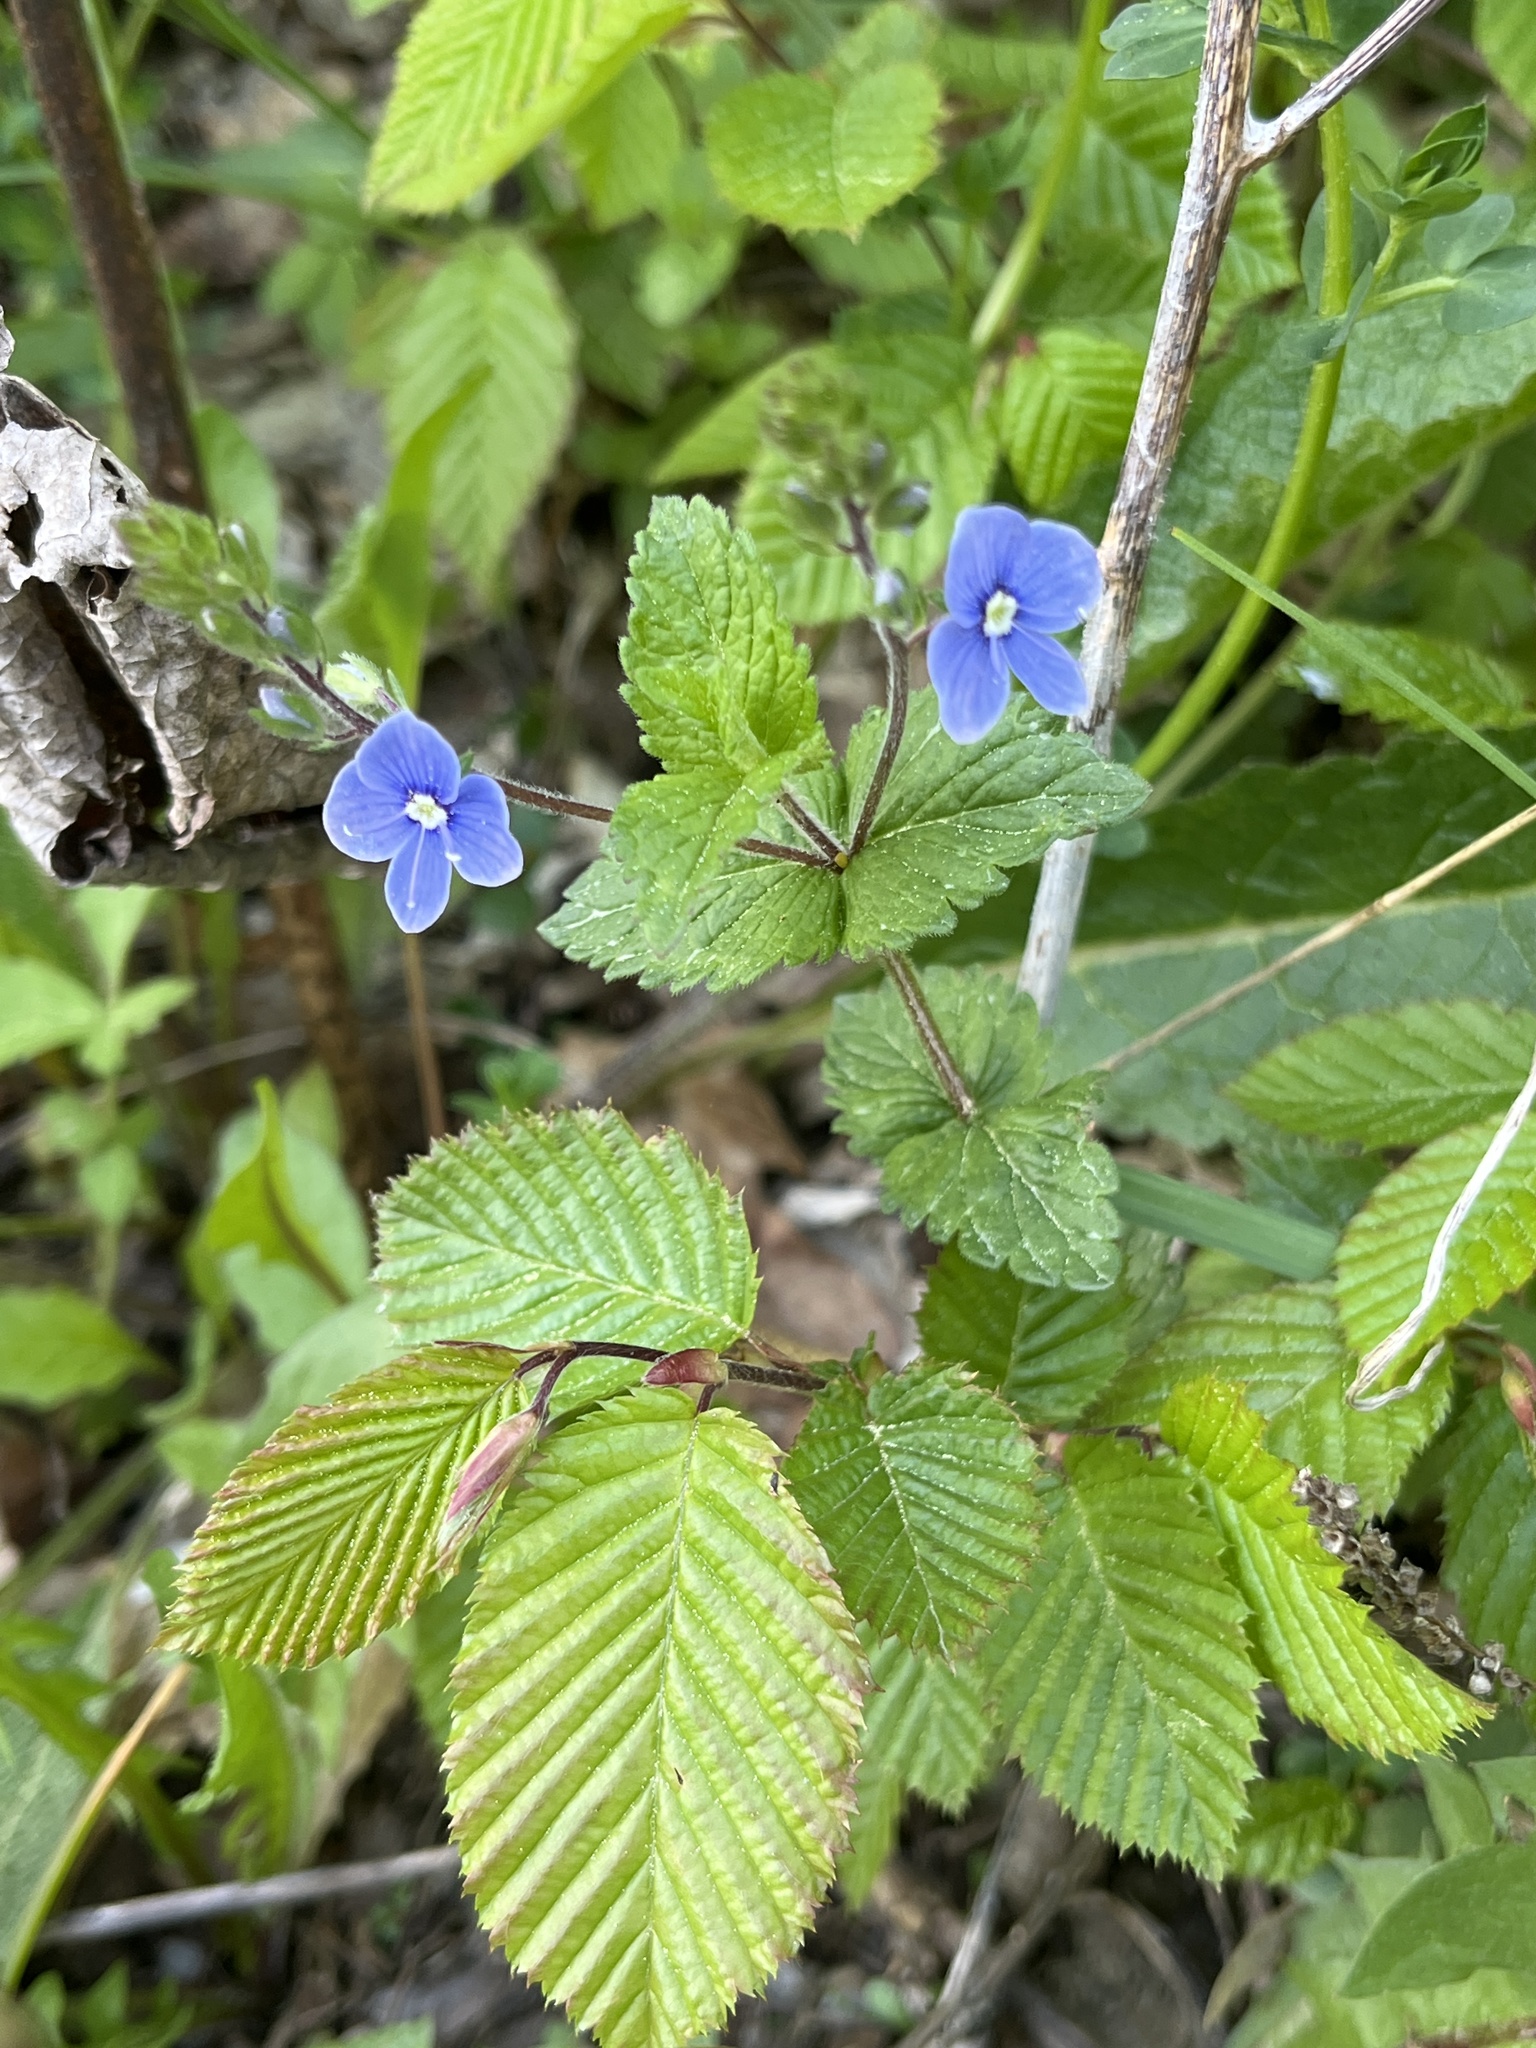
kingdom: Plantae
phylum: Tracheophyta
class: Magnoliopsida
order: Lamiales
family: Plantaginaceae
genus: Veronica
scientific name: Veronica chamaedrys
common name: Germander speedwell
